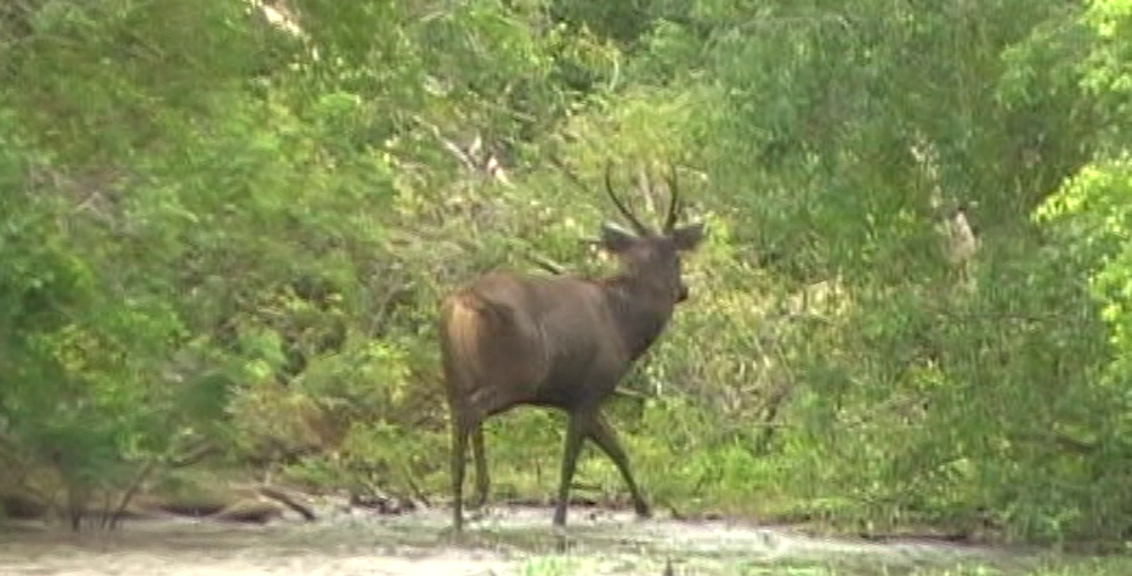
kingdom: Animalia
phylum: Chordata
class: Mammalia
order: Artiodactyla
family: Cervidae
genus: Rusa
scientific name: Rusa unicolor
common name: Sambar
